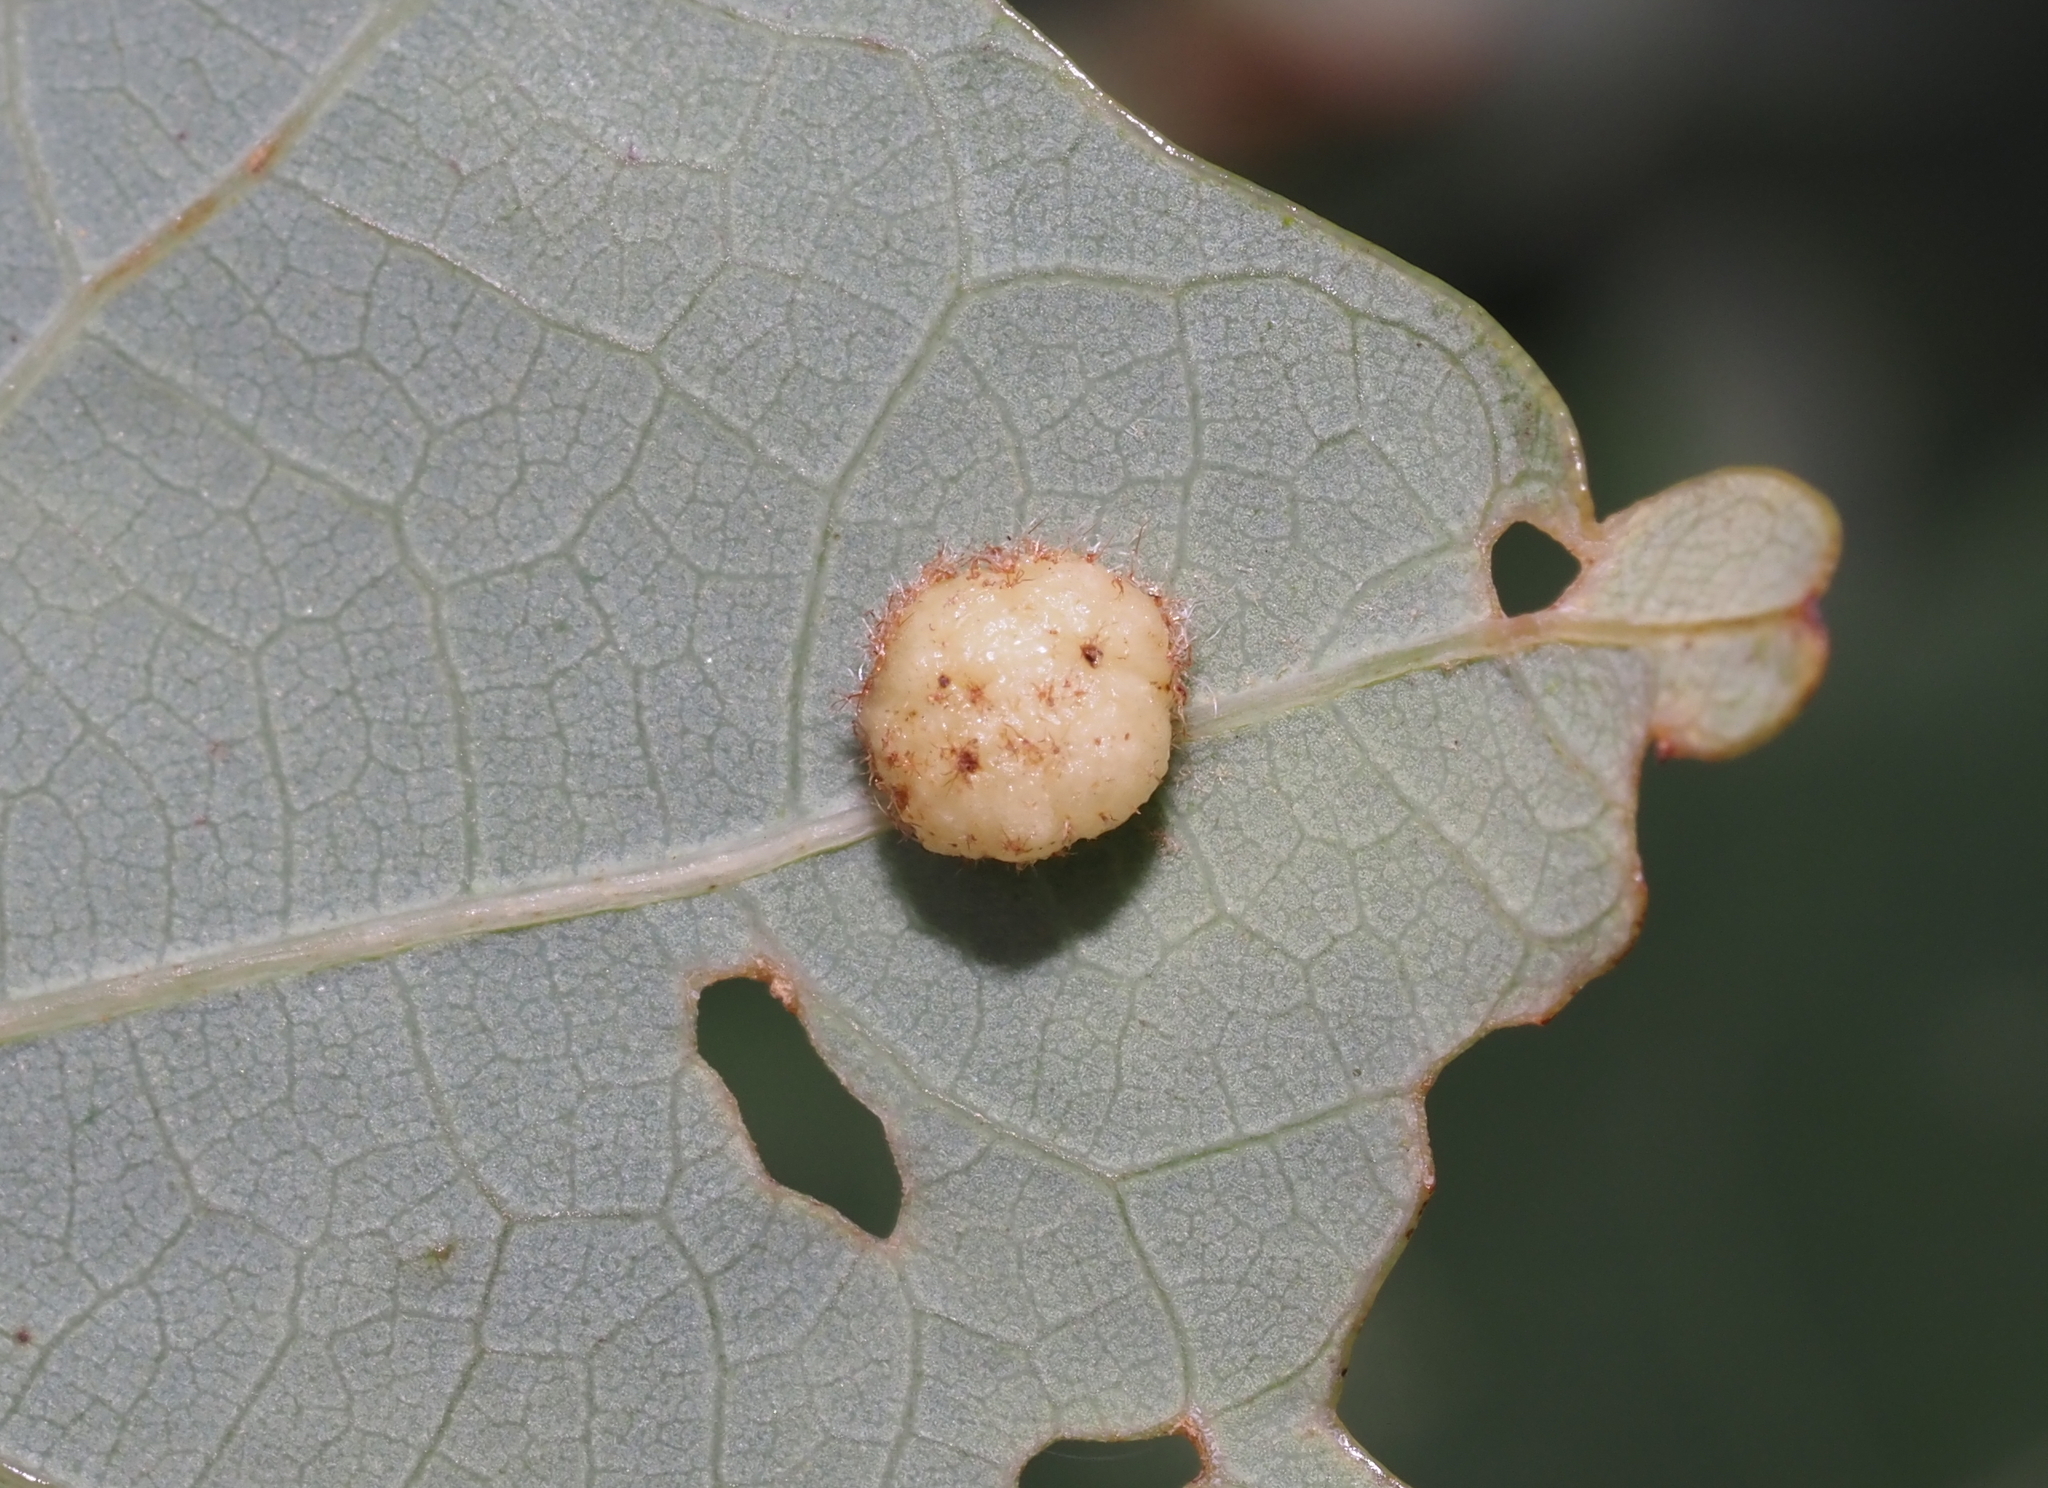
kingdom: Animalia
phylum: Arthropoda
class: Insecta
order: Hymenoptera
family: Cynipidae
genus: Philonix
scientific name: Philonix fulvicollis
